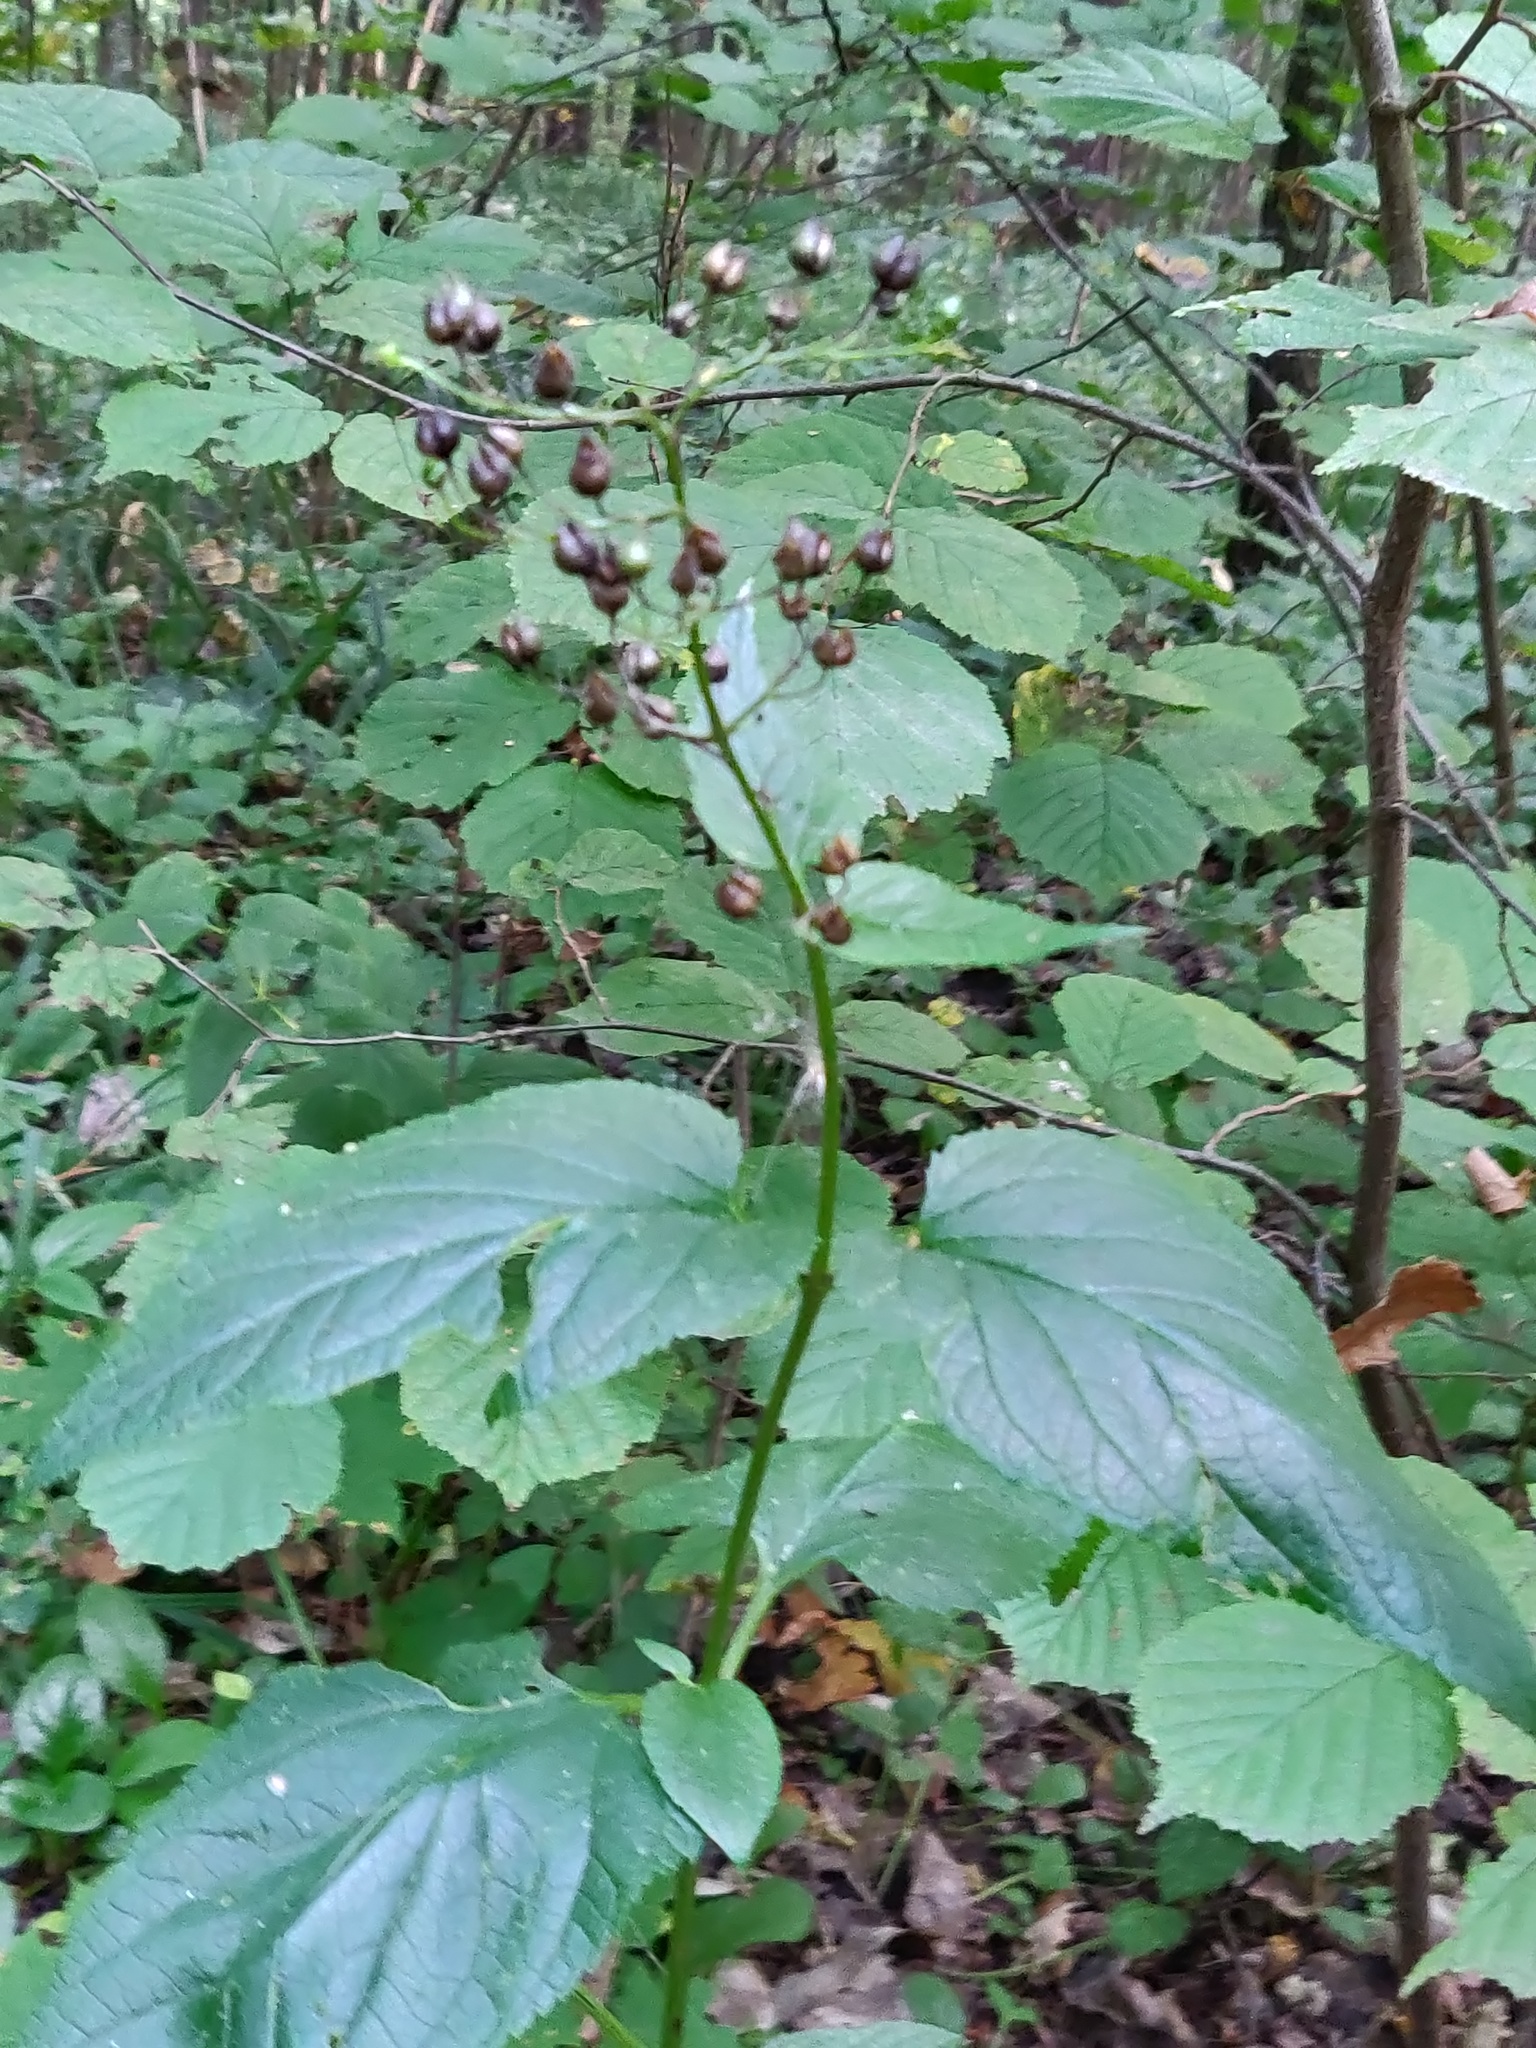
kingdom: Plantae
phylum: Tracheophyta
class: Magnoliopsida
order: Lamiales
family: Scrophulariaceae
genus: Scrophularia
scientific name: Scrophularia nodosa
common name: Common figwort
